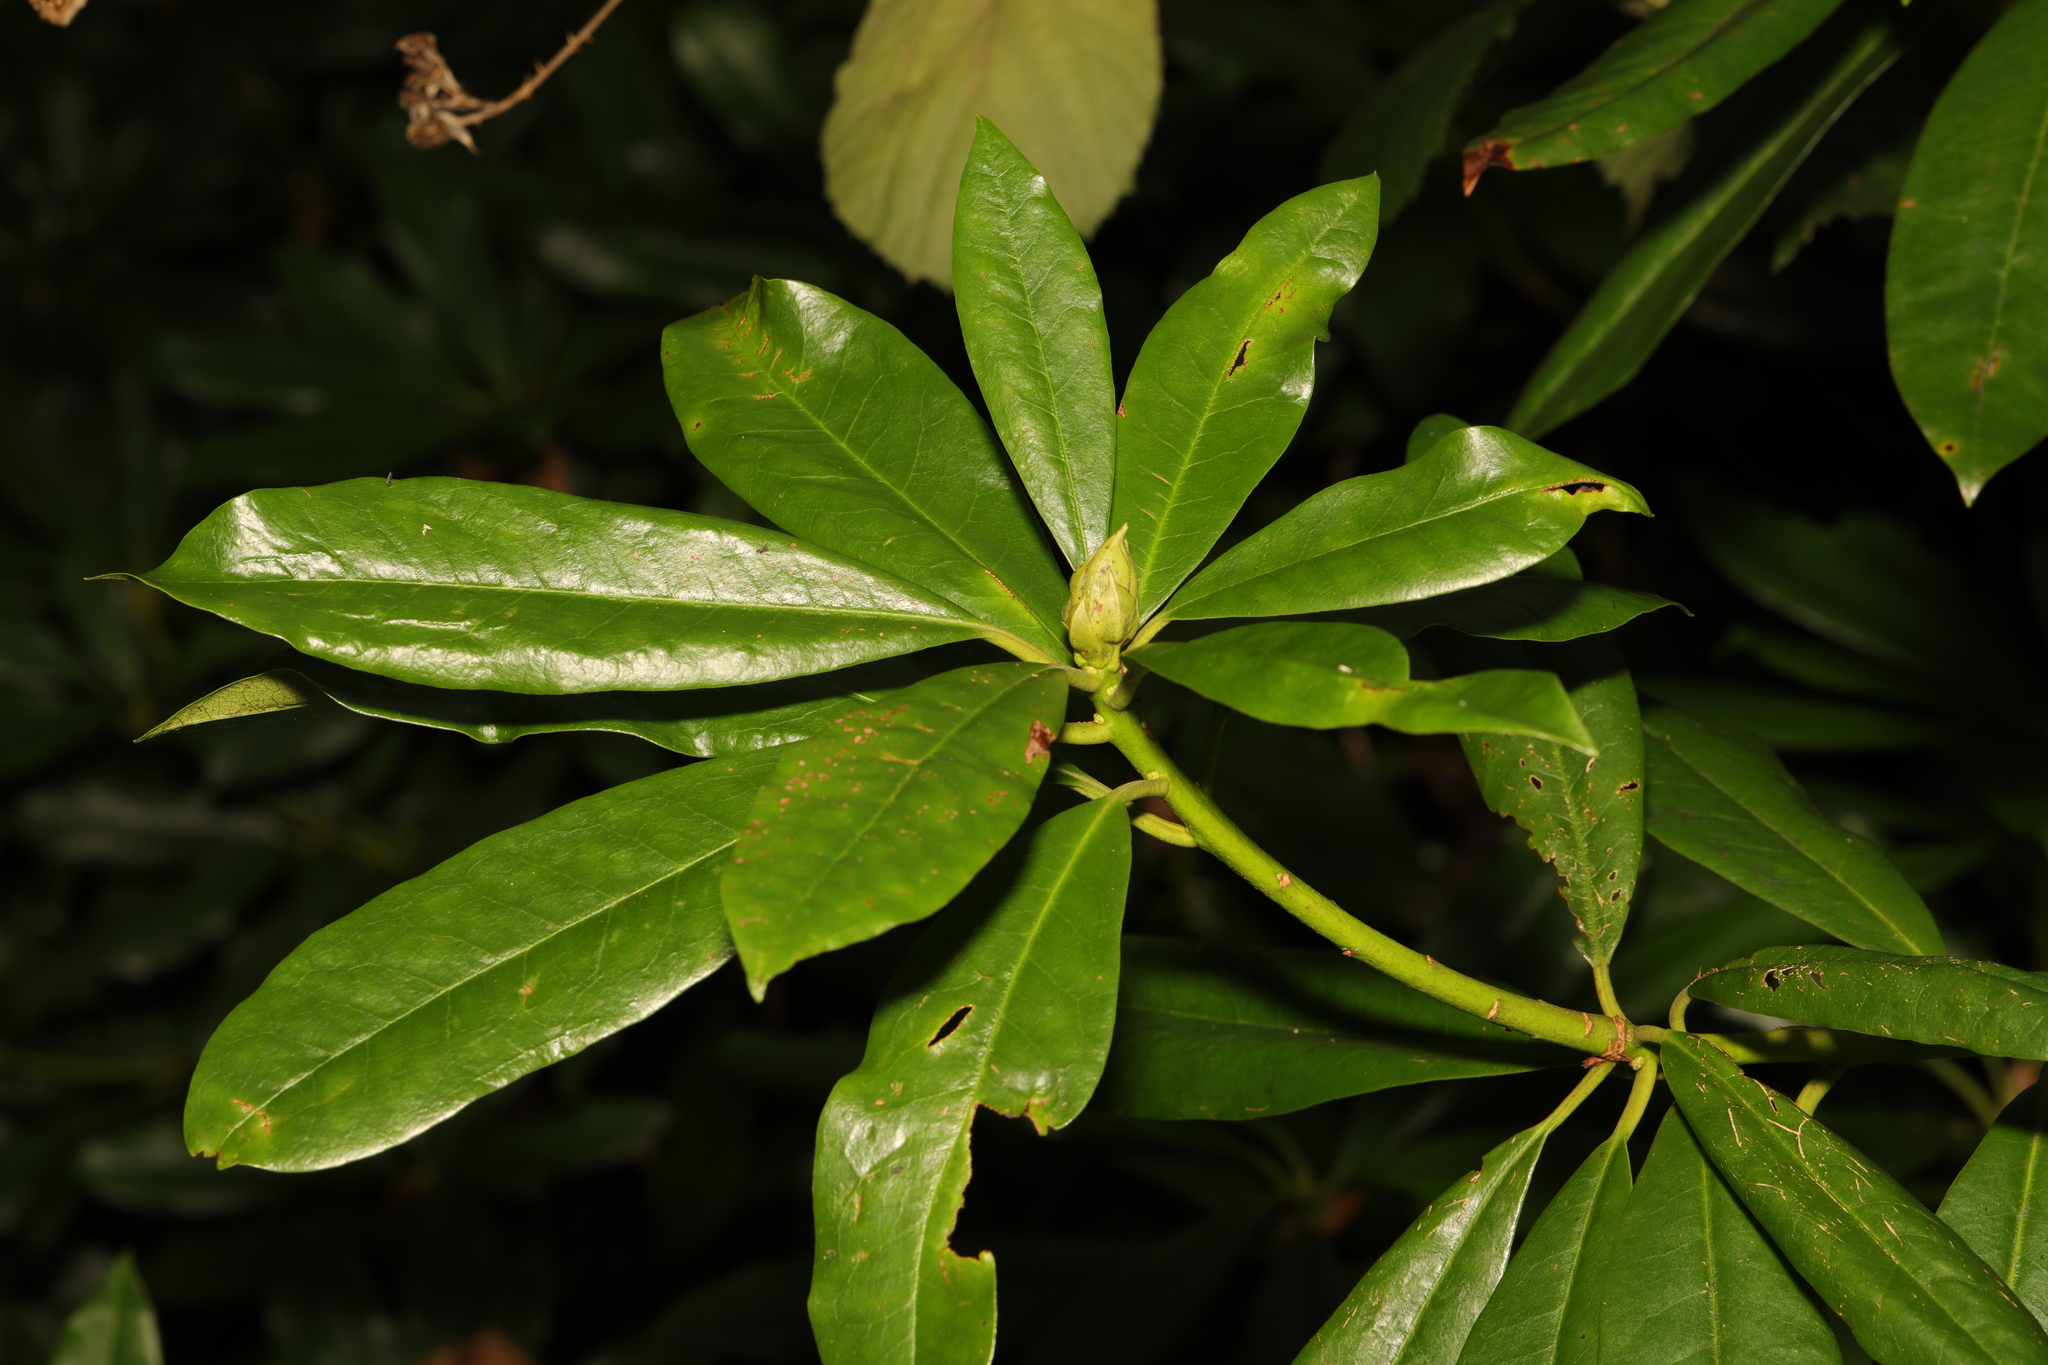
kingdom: Plantae
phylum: Tracheophyta
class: Magnoliopsida
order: Ericales
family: Ericaceae
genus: Rhododendron
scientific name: Rhododendron ponticum
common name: Rhododendron
